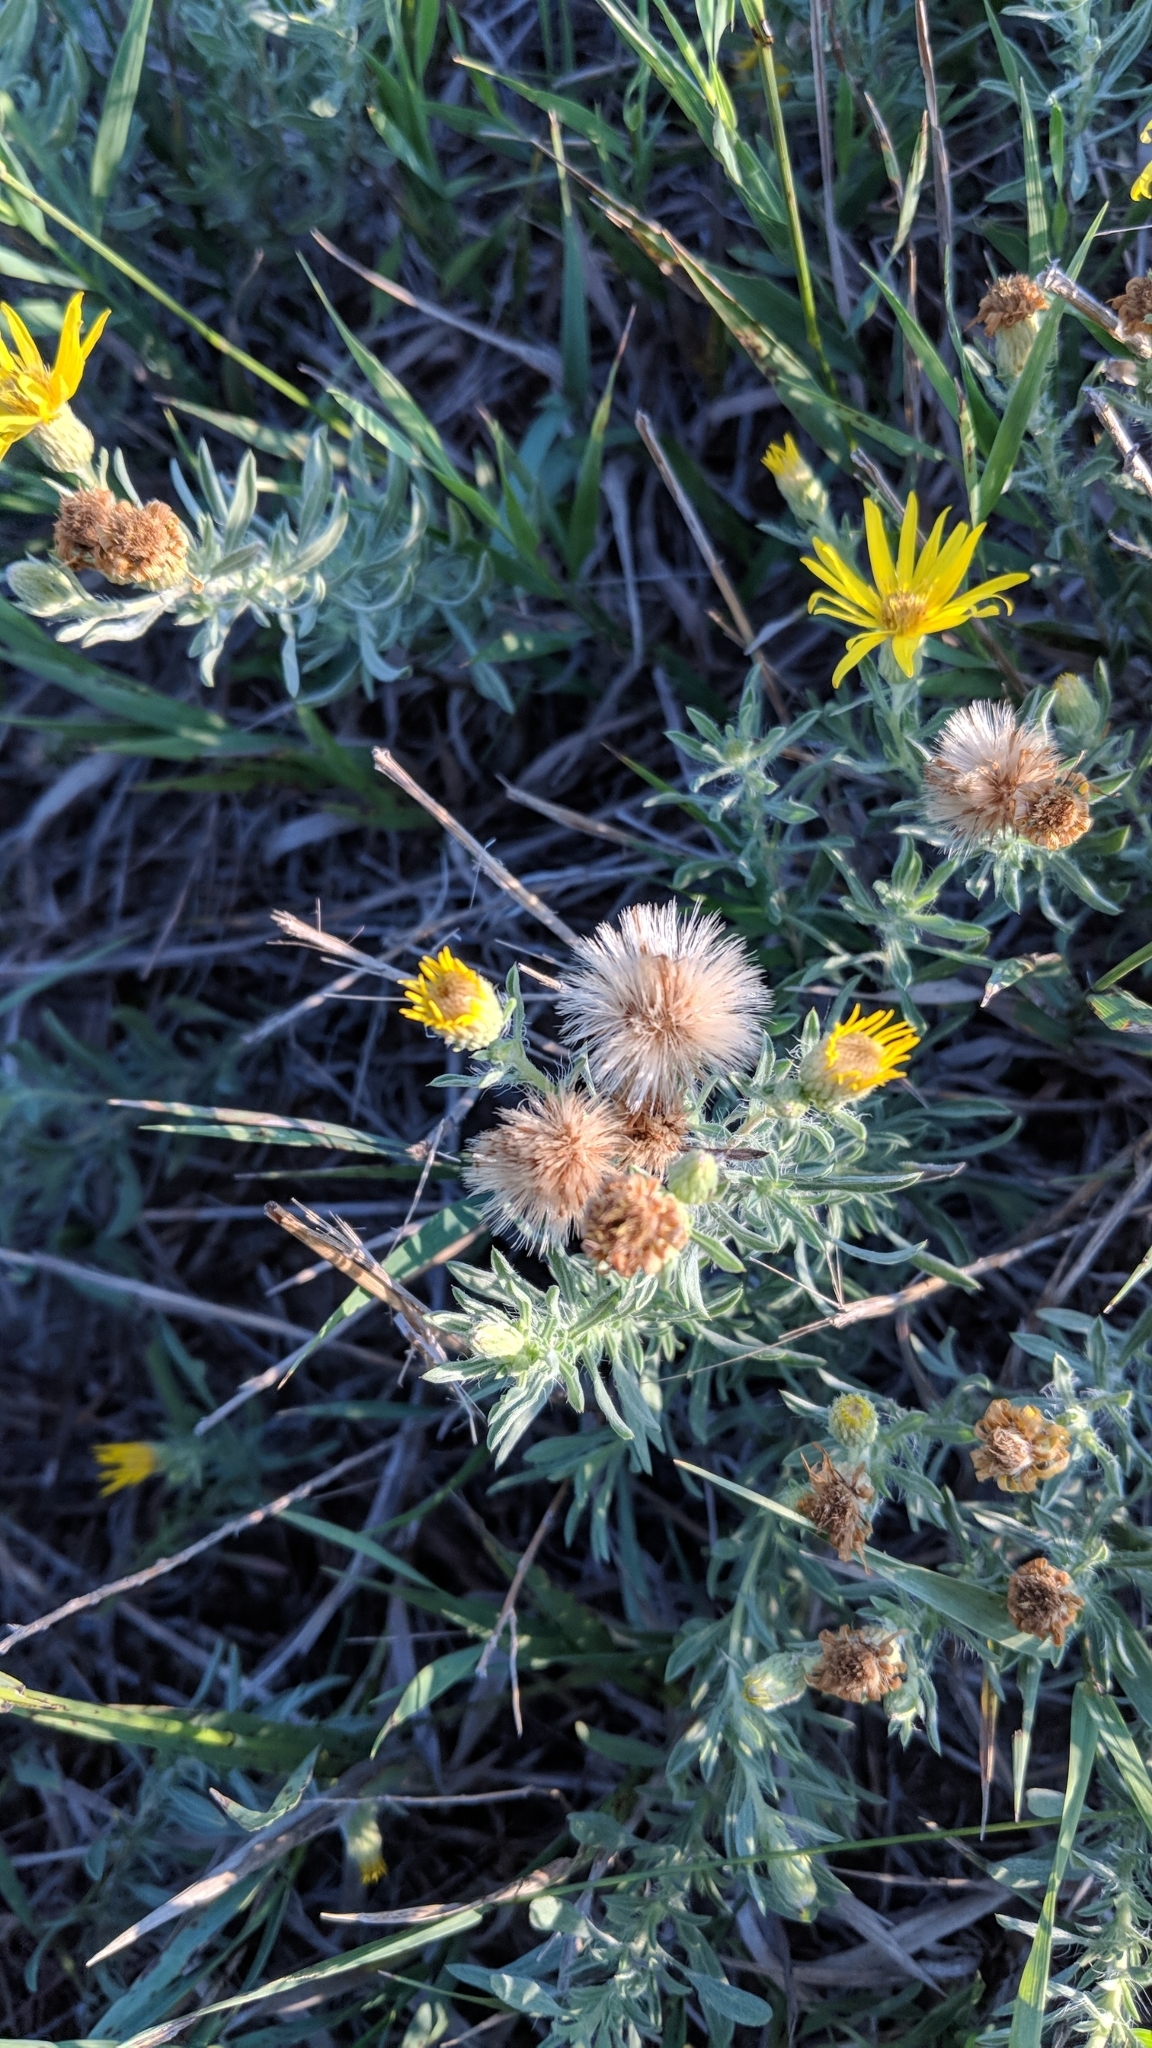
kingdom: Plantae
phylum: Tracheophyta
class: Magnoliopsida
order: Asterales
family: Asteraceae
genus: Heterotheca
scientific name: Heterotheca canescens
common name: Hoary golden-aster
